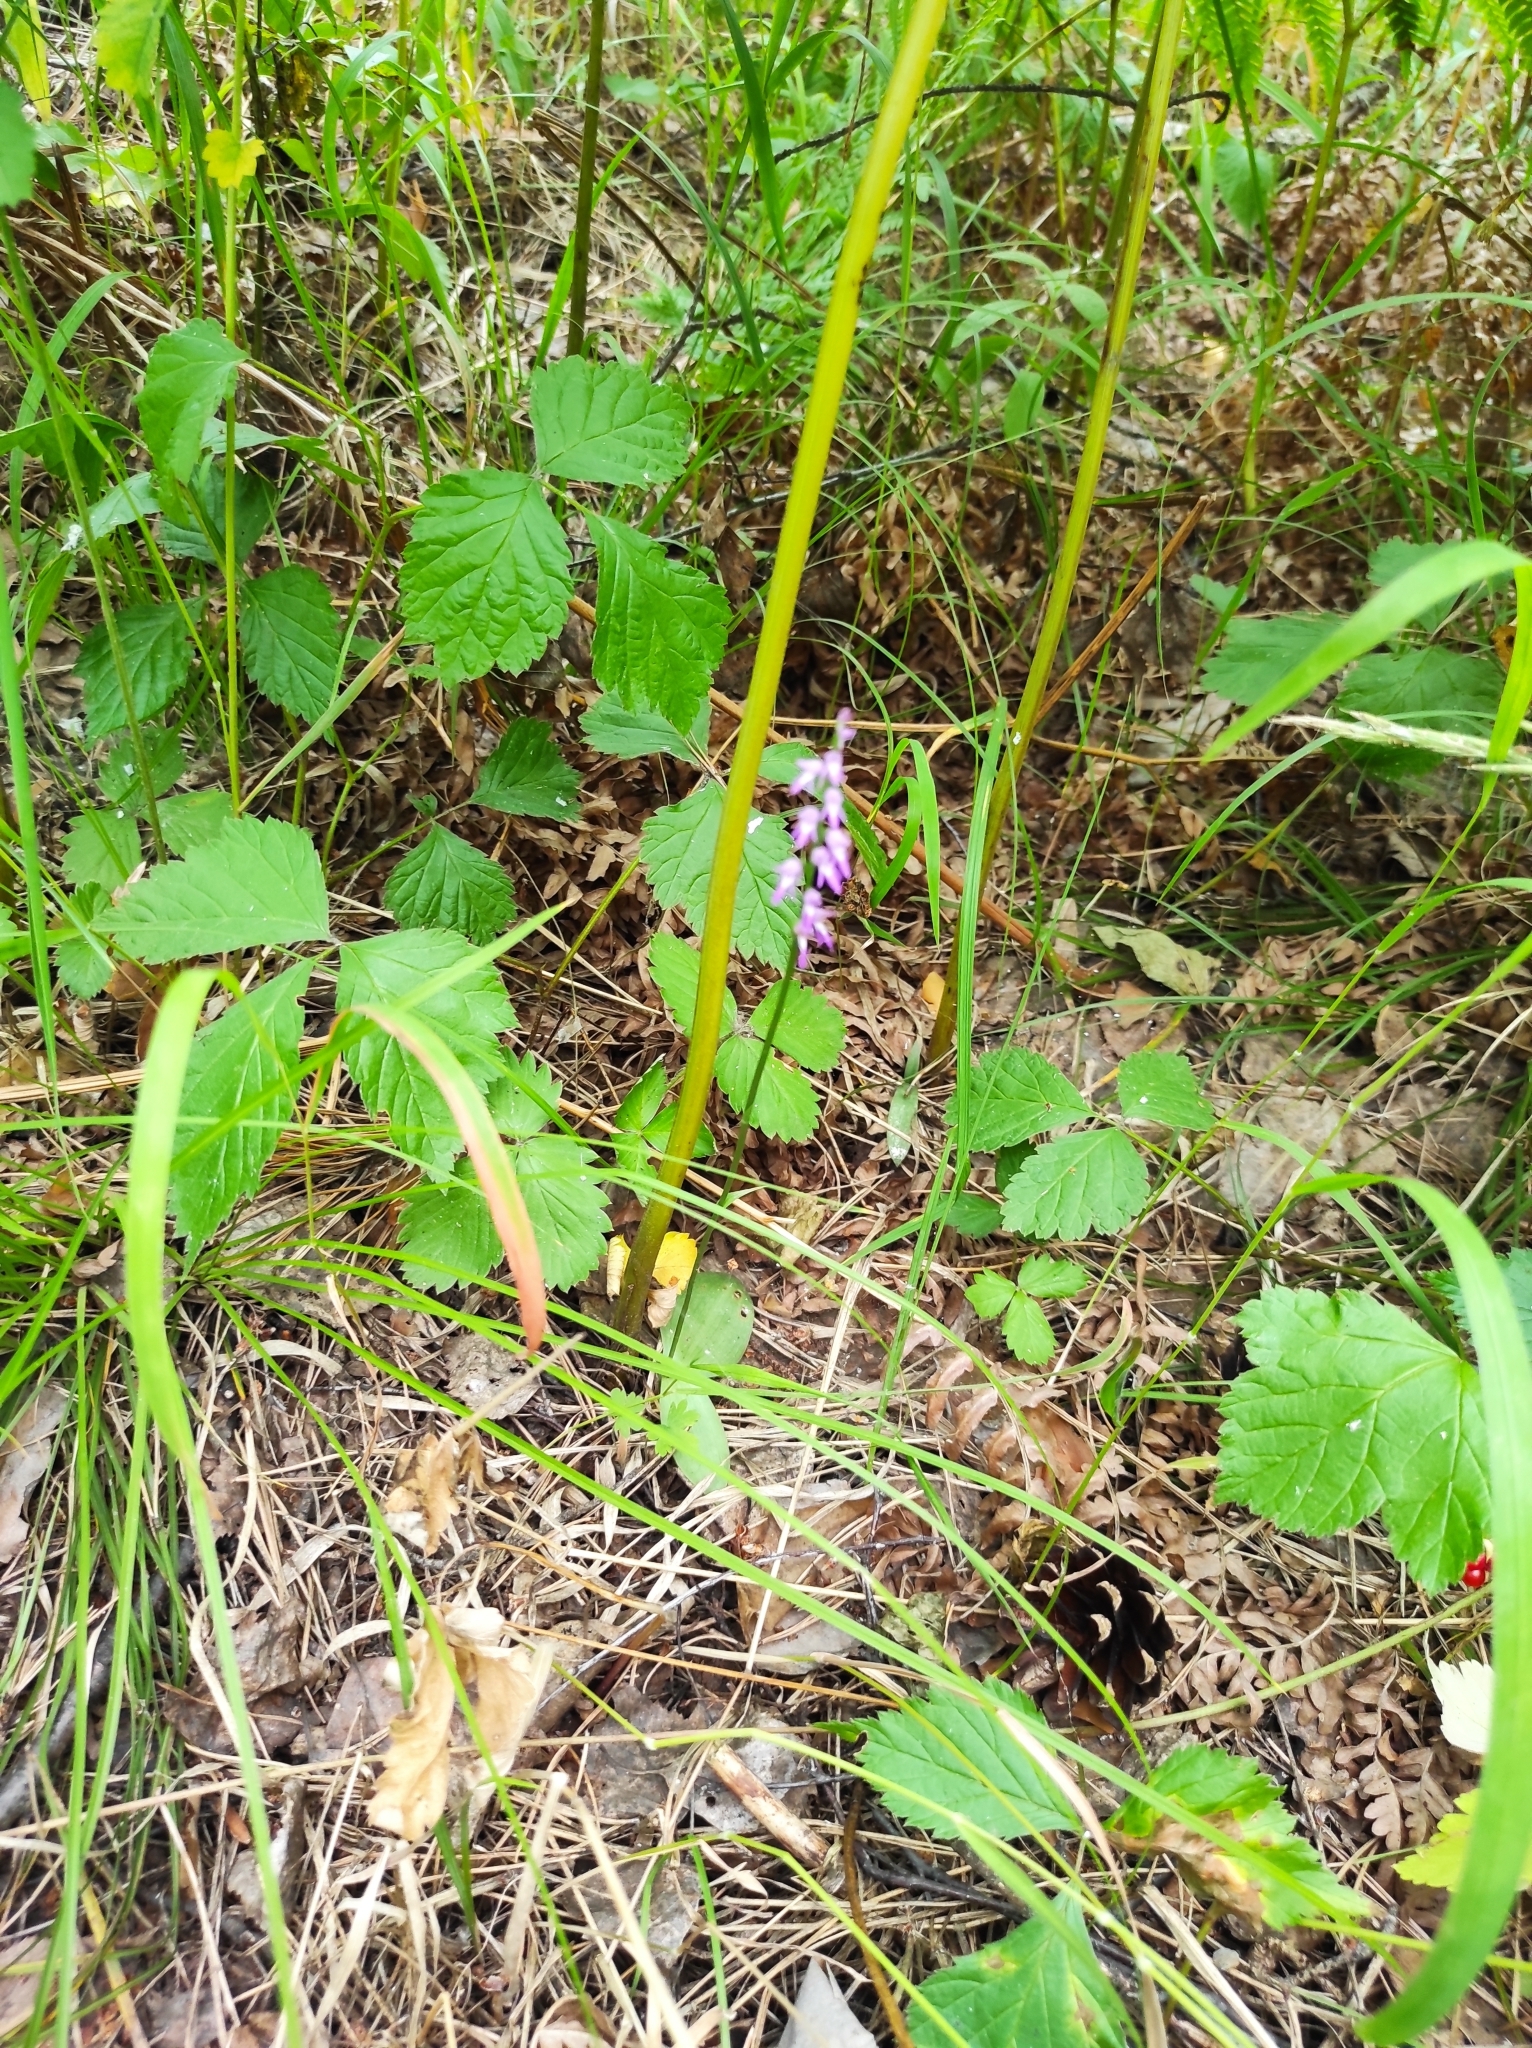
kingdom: Plantae
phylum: Tracheophyta
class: Liliopsida
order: Asparagales
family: Orchidaceae
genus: Hemipilia
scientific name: Hemipilia cucullata
